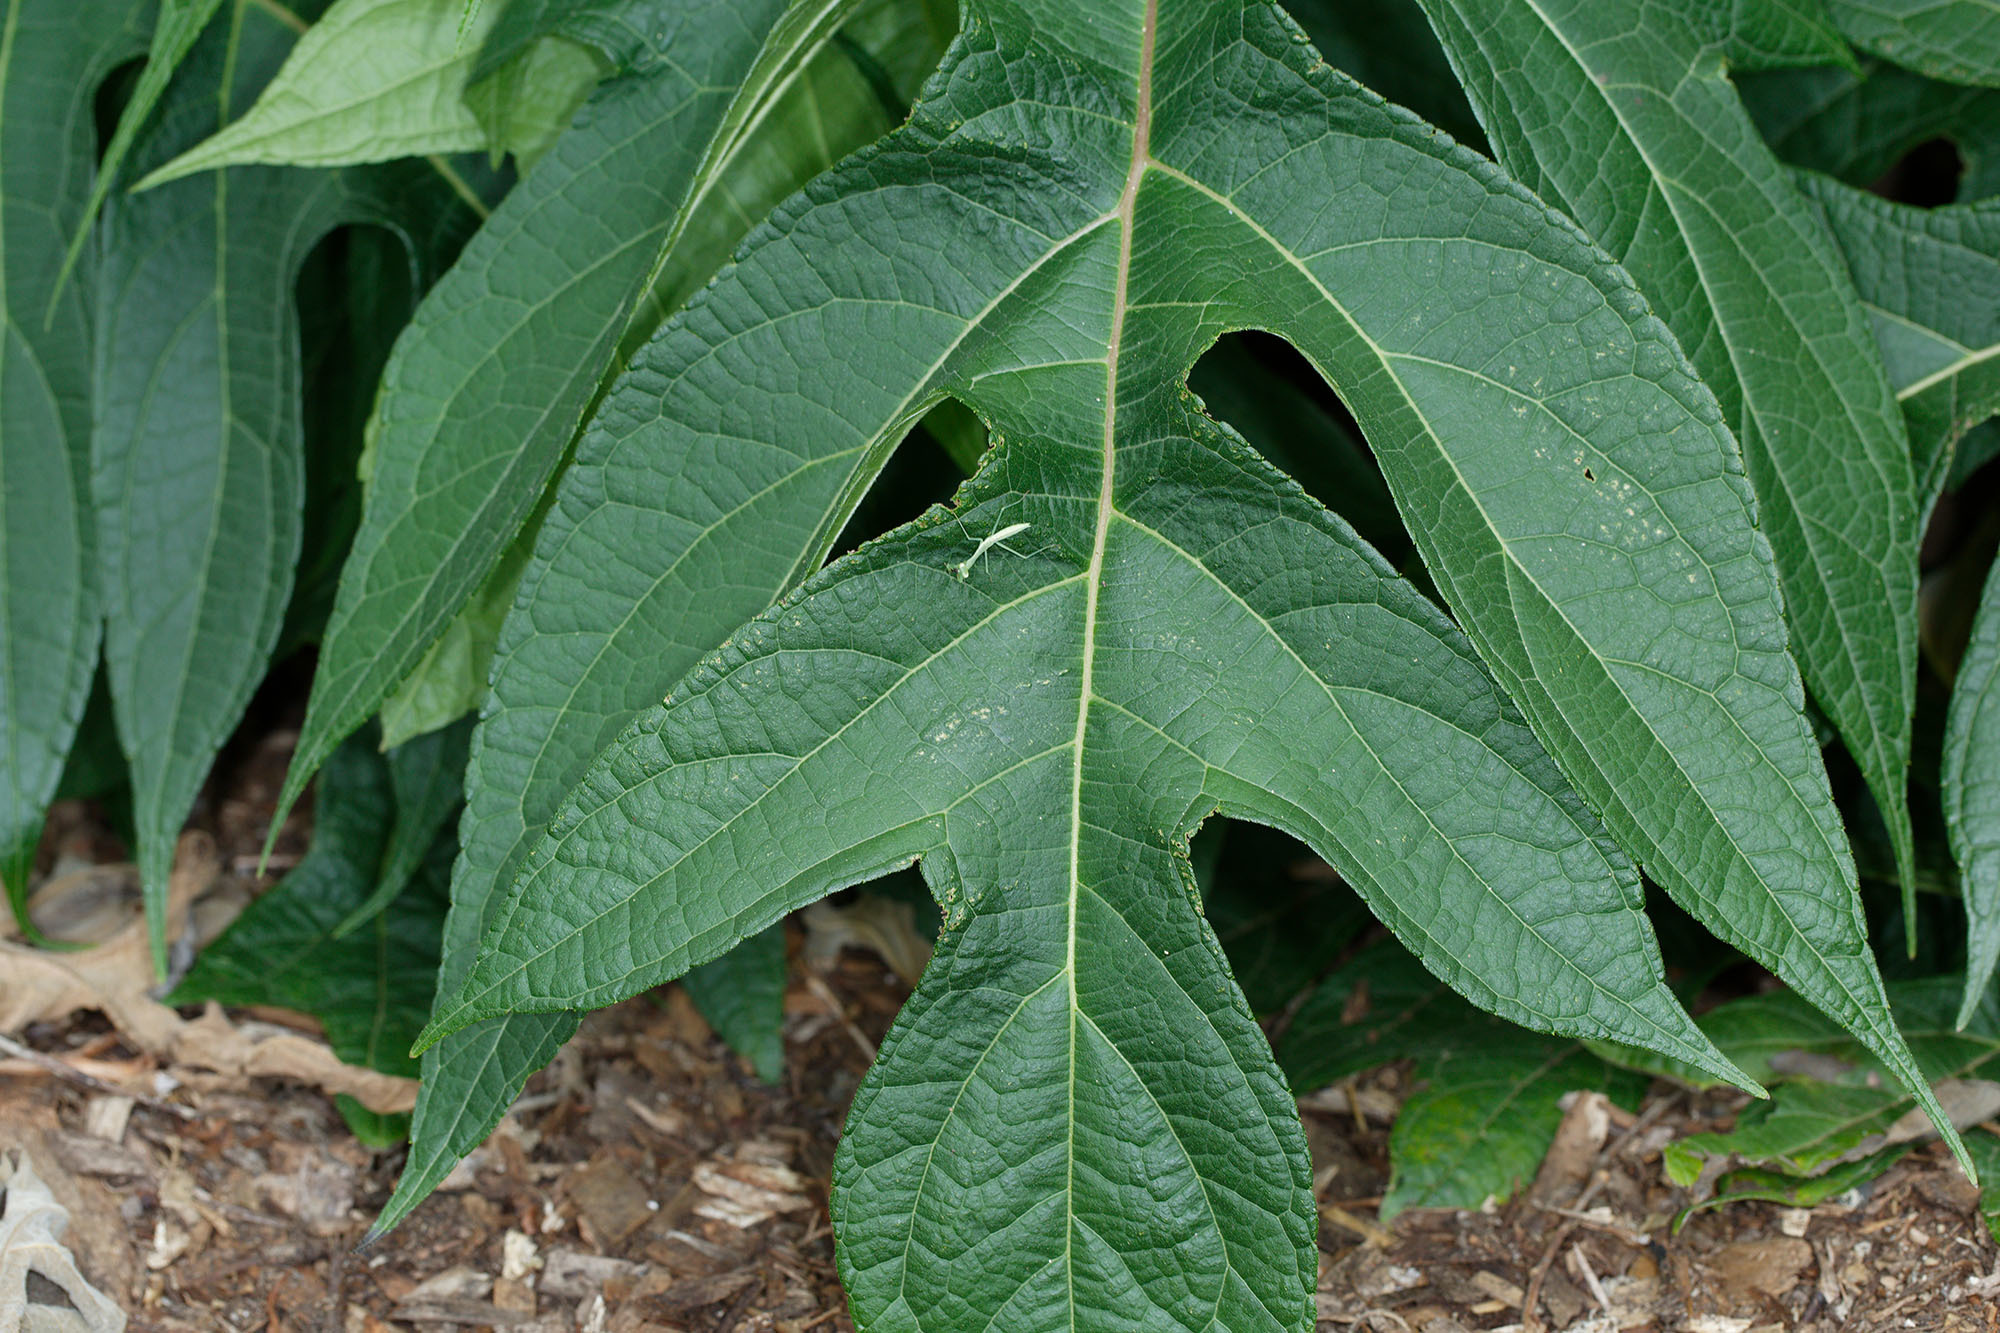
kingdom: Animalia
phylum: Arthropoda
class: Insecta
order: Mantodea
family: Miomantidae
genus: Miomantis
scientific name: Miomantis caffra
